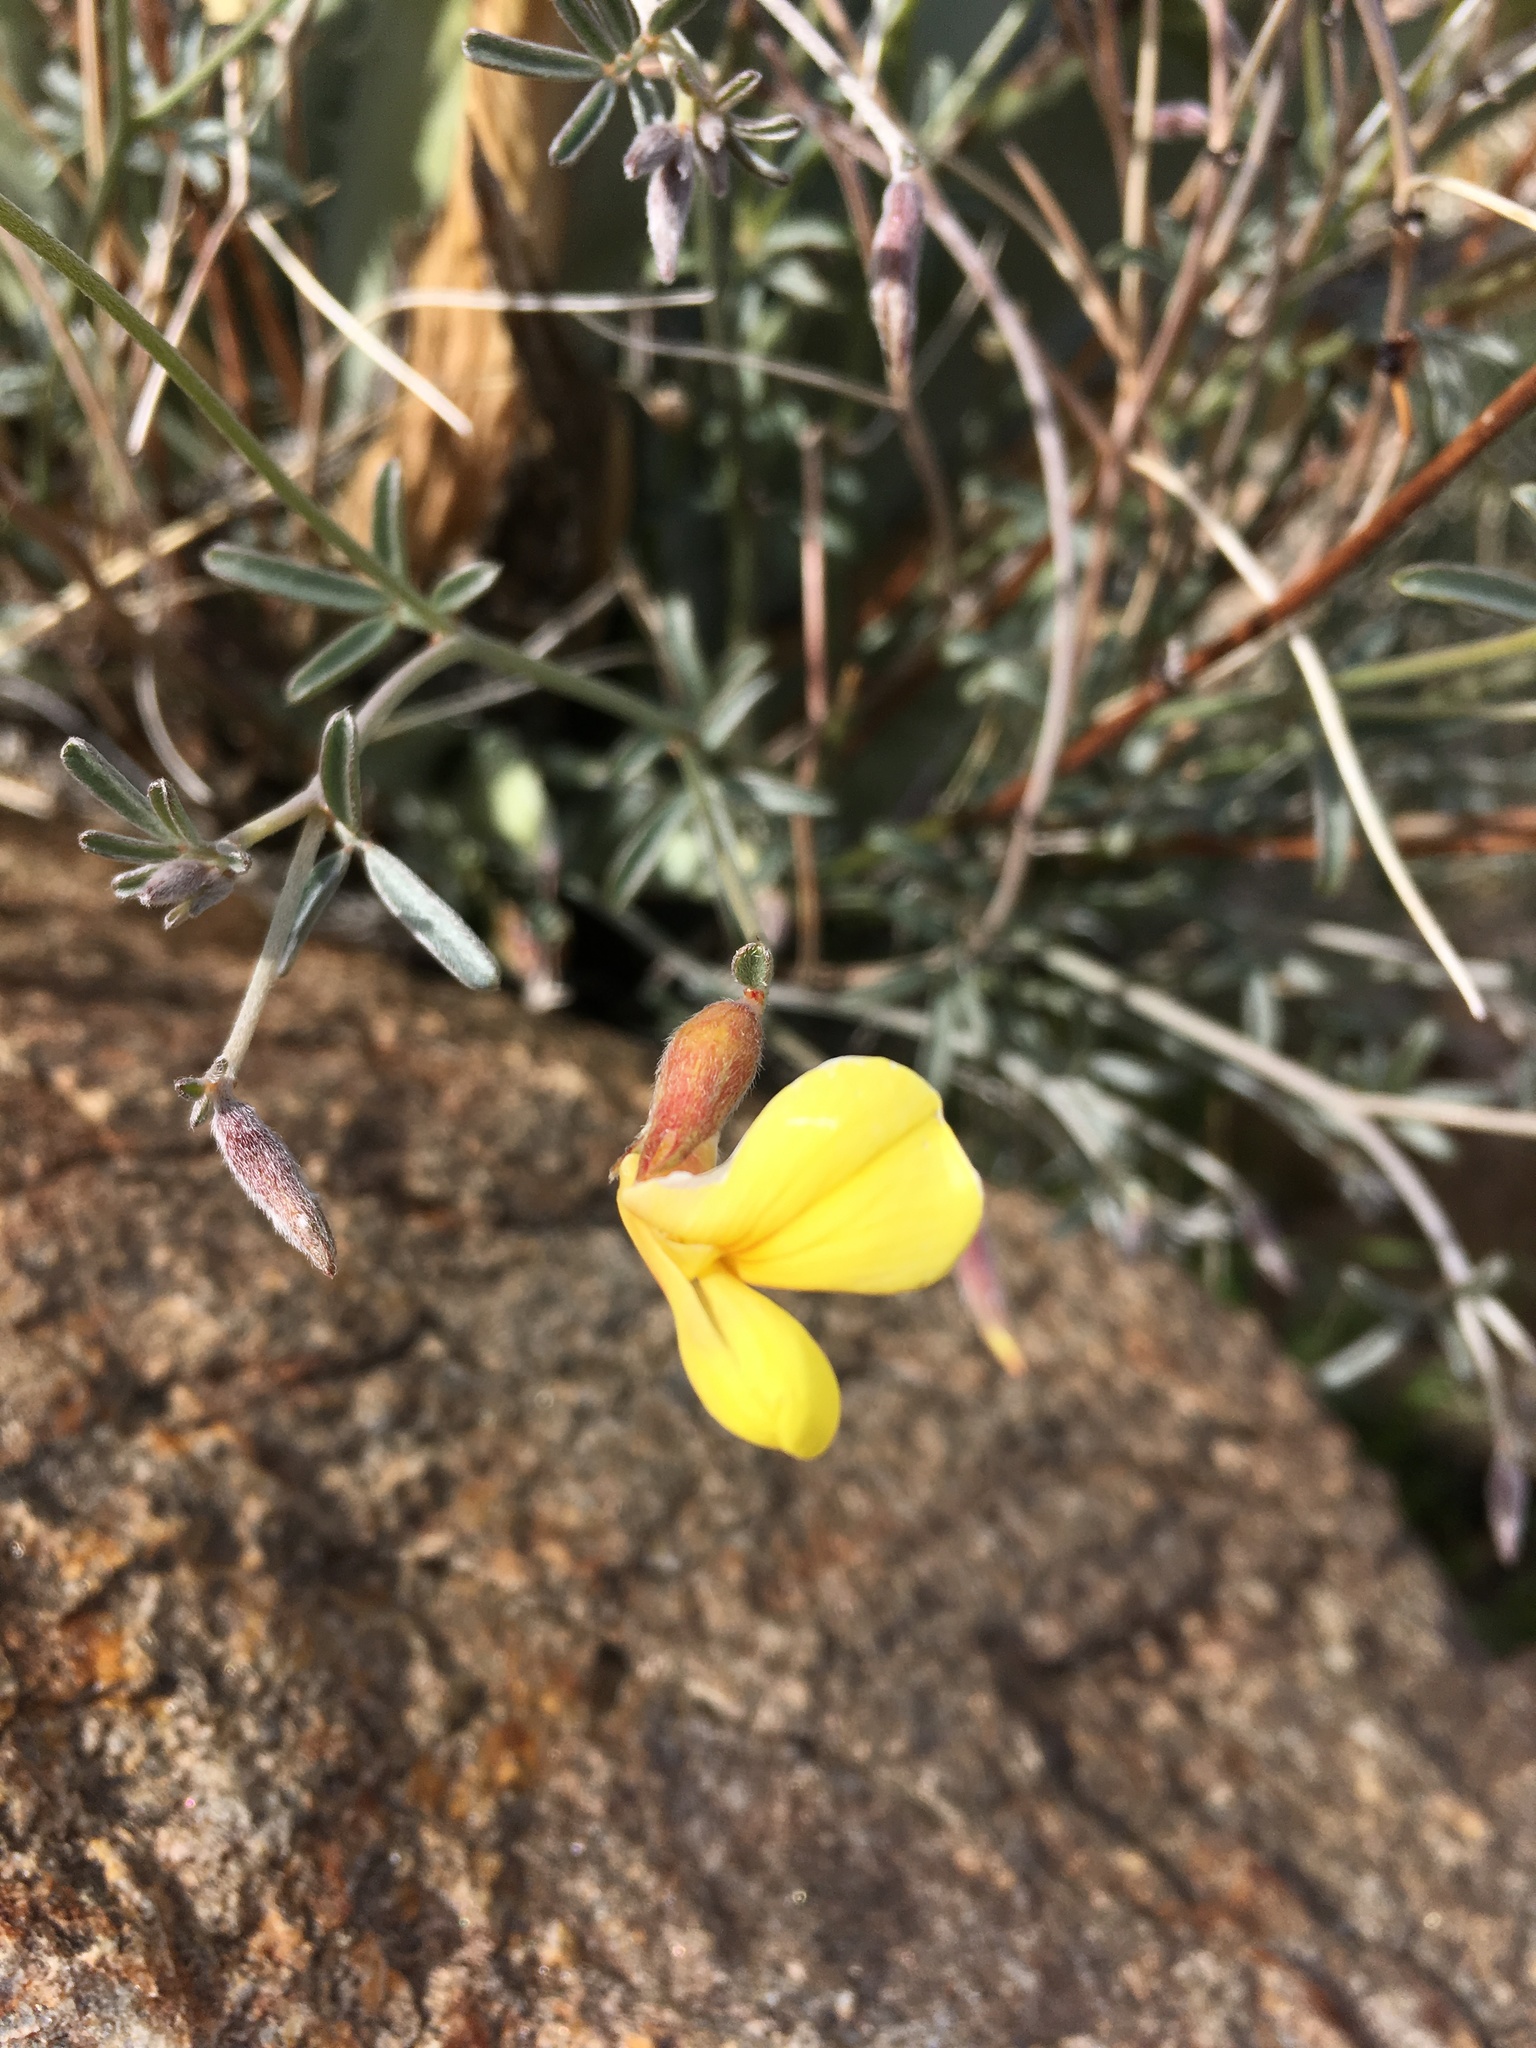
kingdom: Plantae
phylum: Tracheophyta
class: Magnoliopsida
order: Fabales
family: Fabaceae
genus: Acmispon
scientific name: Acmispon rigidus
